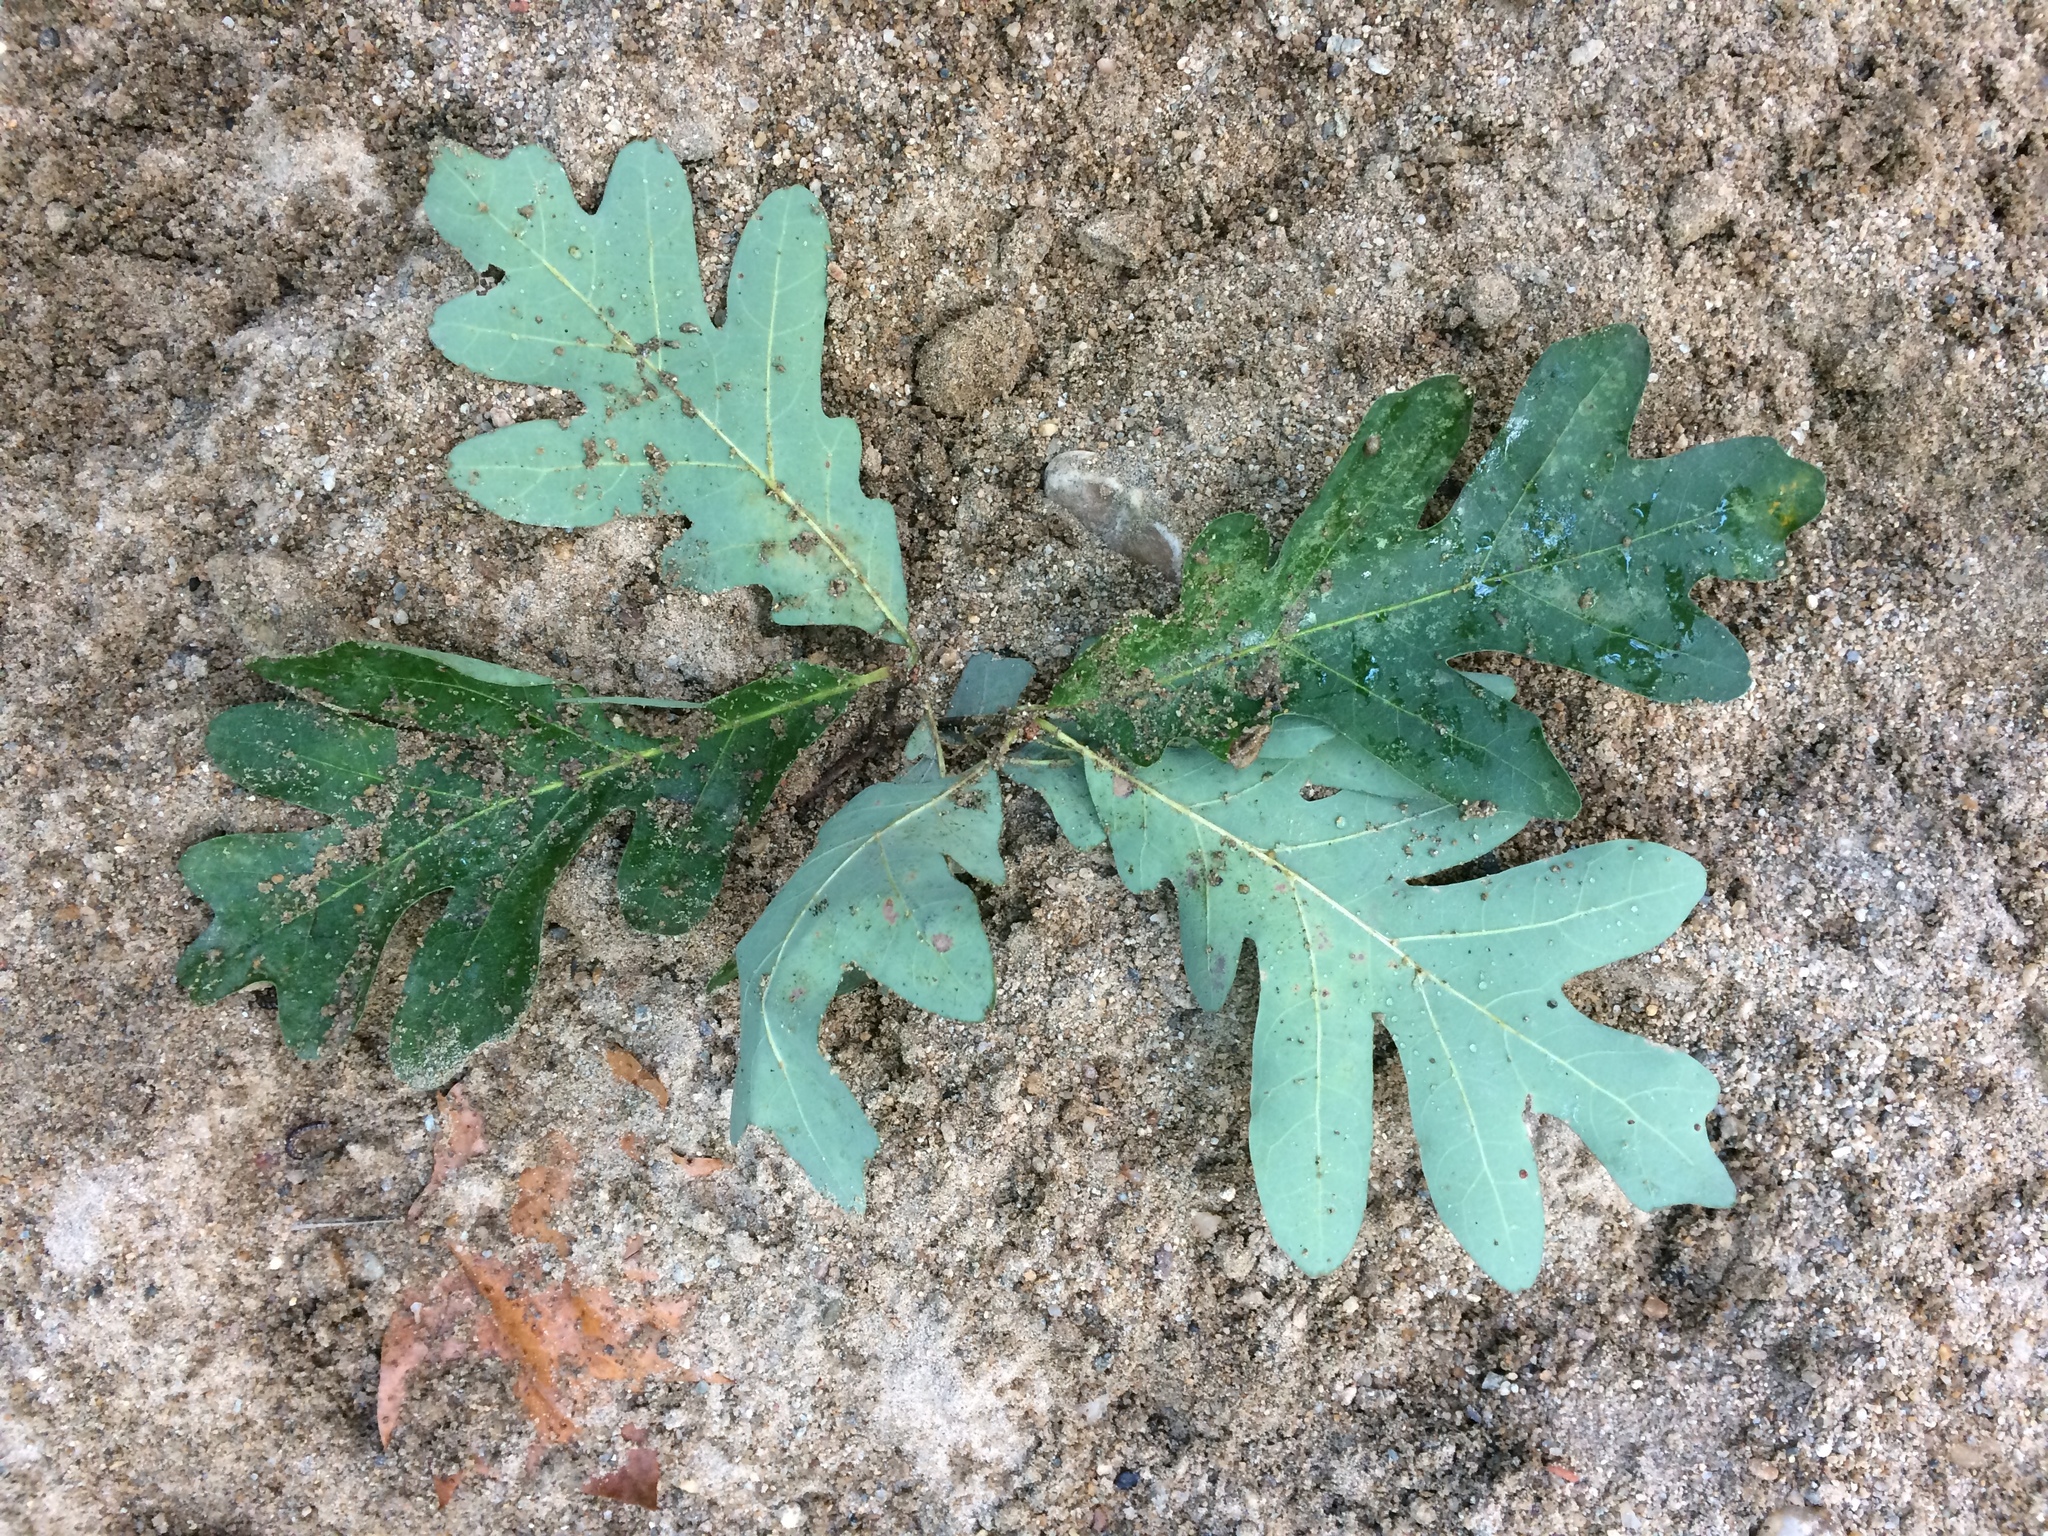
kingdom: Plantae
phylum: Tracheophyta
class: Magnoliopsida
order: Fagales
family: Fagaceae
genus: Quercus
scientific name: Quercus alba
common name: White oak
